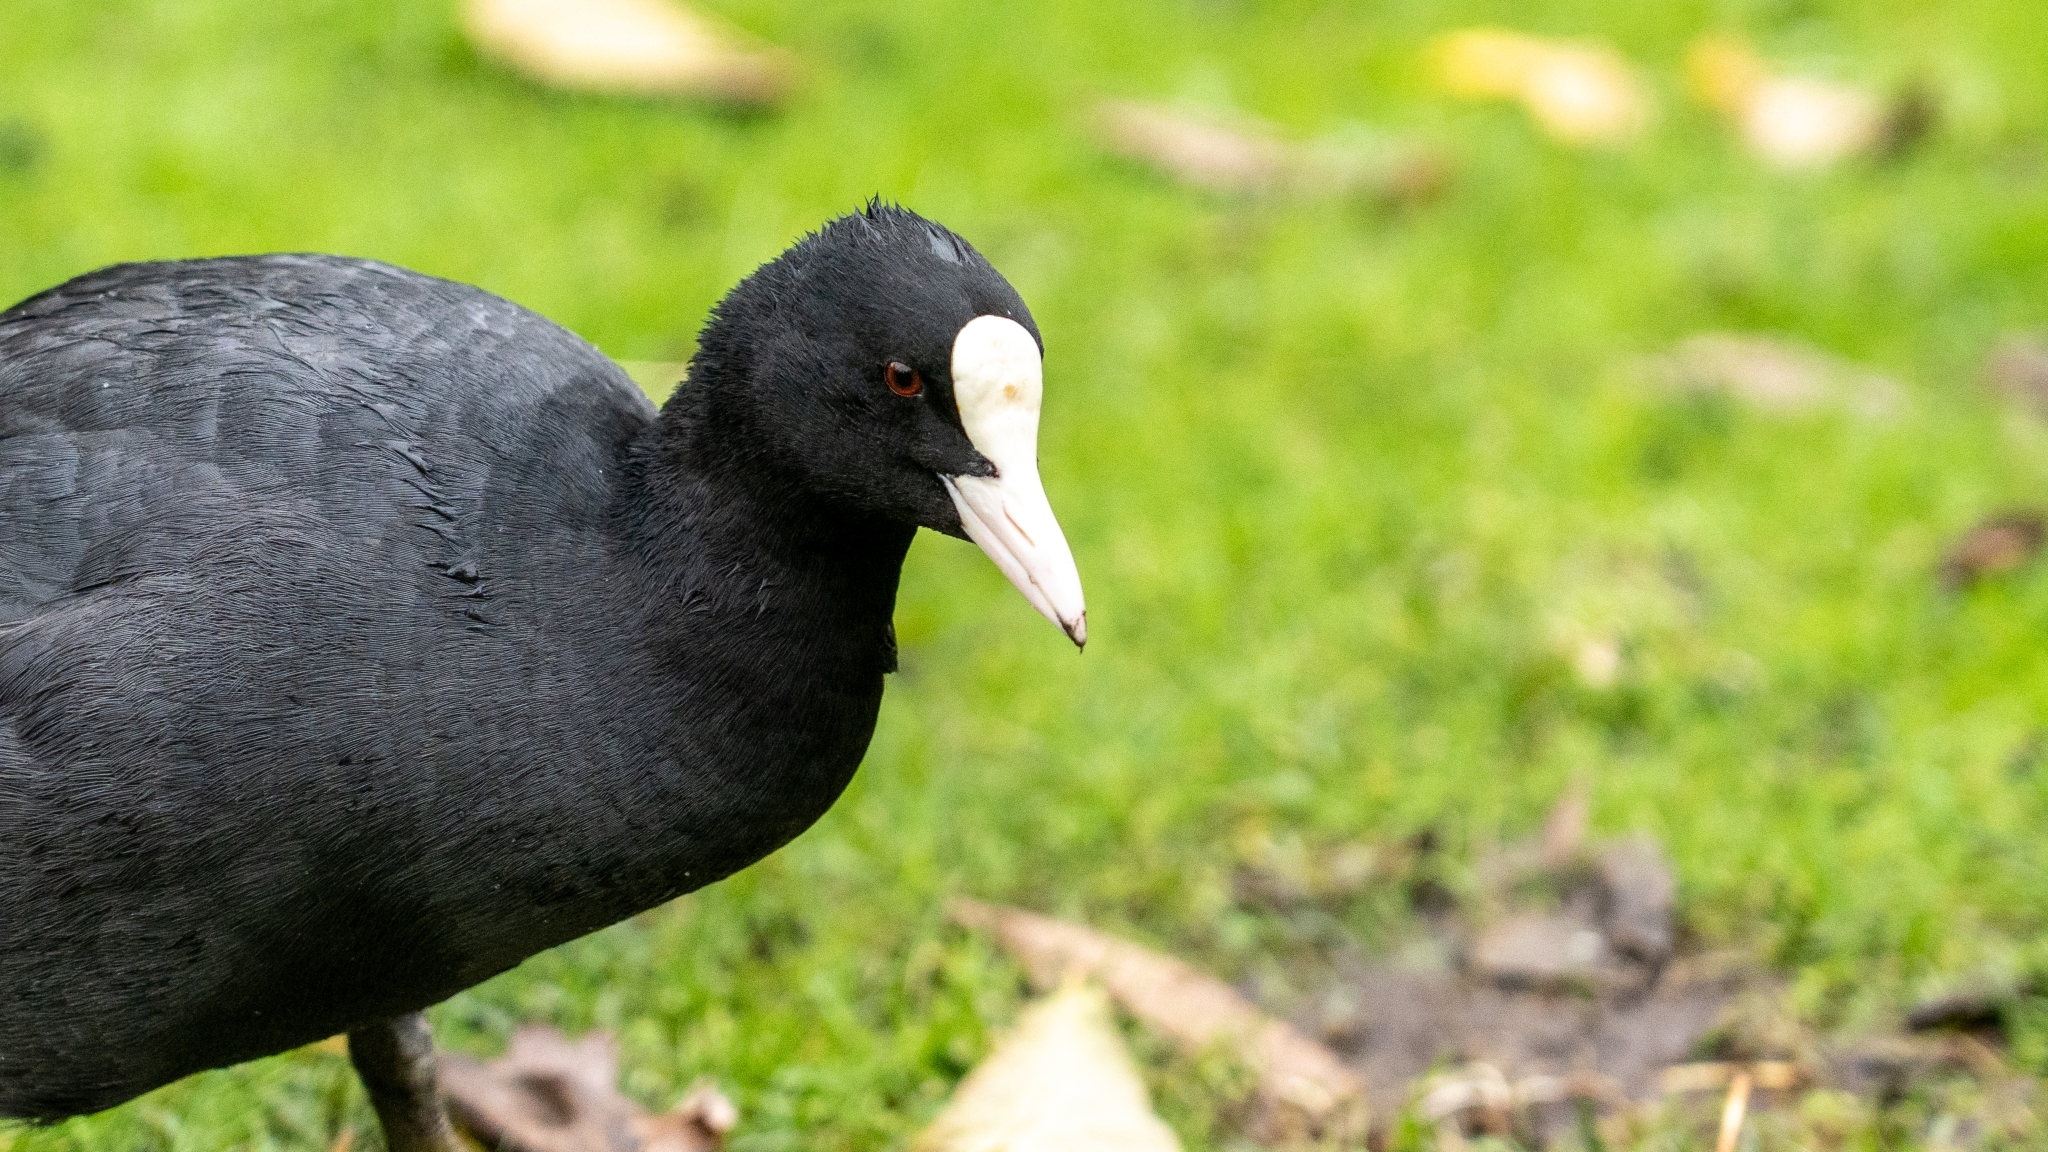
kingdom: Animalia
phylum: Chordata
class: Aves
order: Gruiformes
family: Rallidae
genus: Fulica
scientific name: Fulica atra
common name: Eurasian coot
